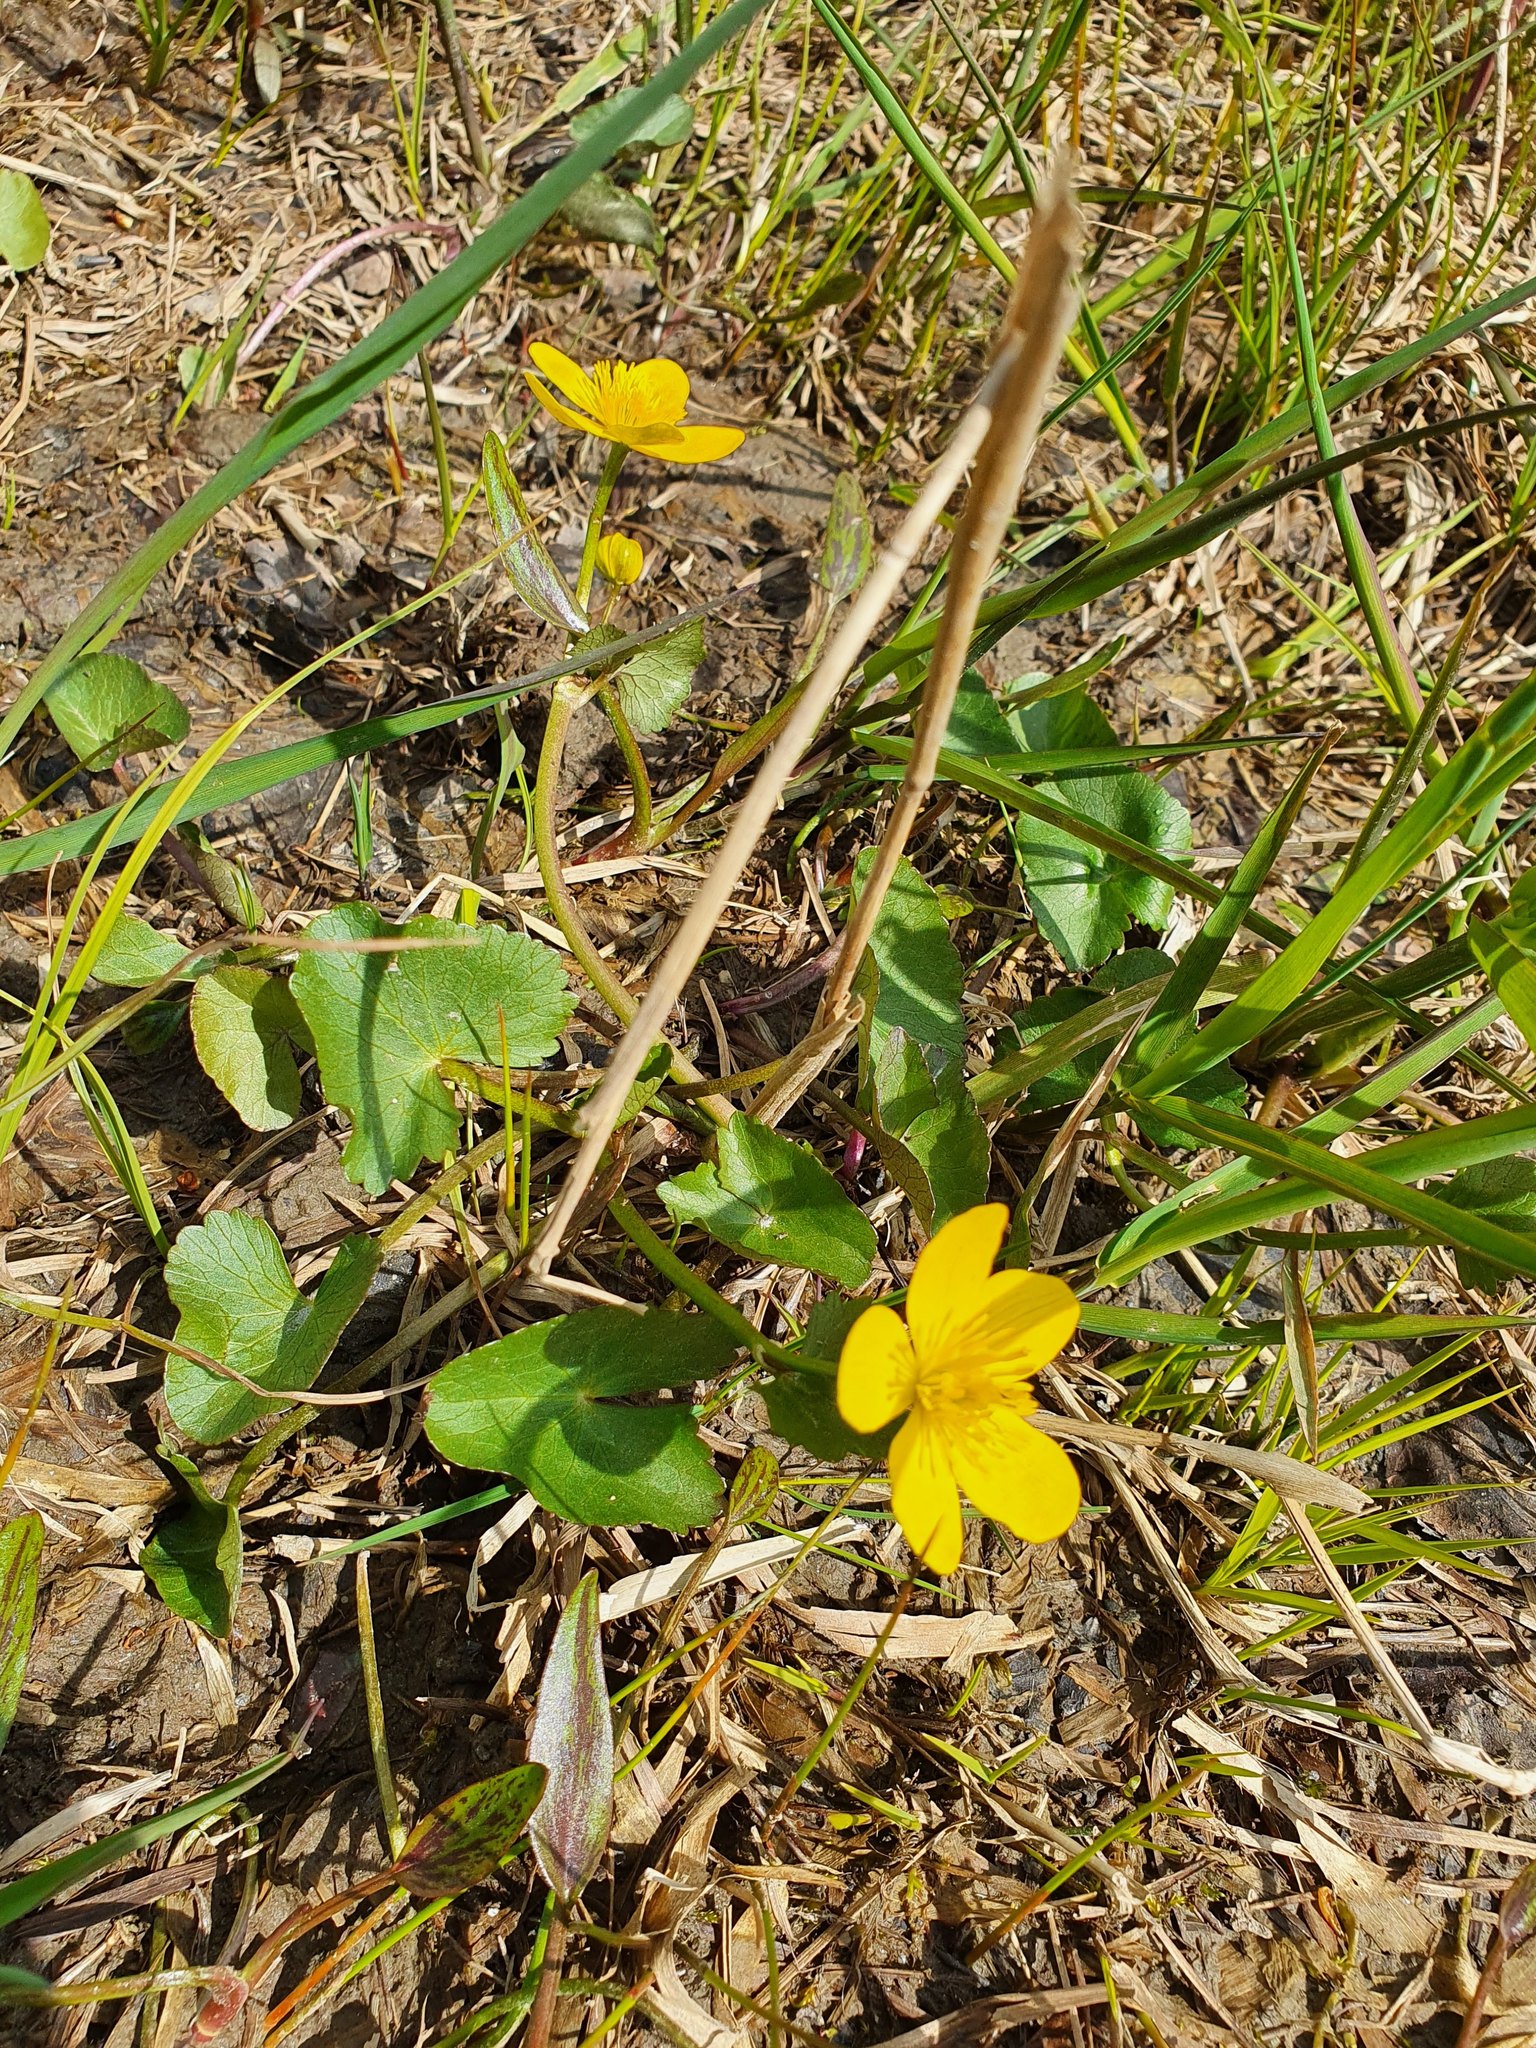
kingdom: Plantae
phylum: Tracheophyta
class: Magnoliopsida
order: Ranunculales
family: Ranunculaceae
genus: Caltha
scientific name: Caltha palustris
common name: Marsh marigold
